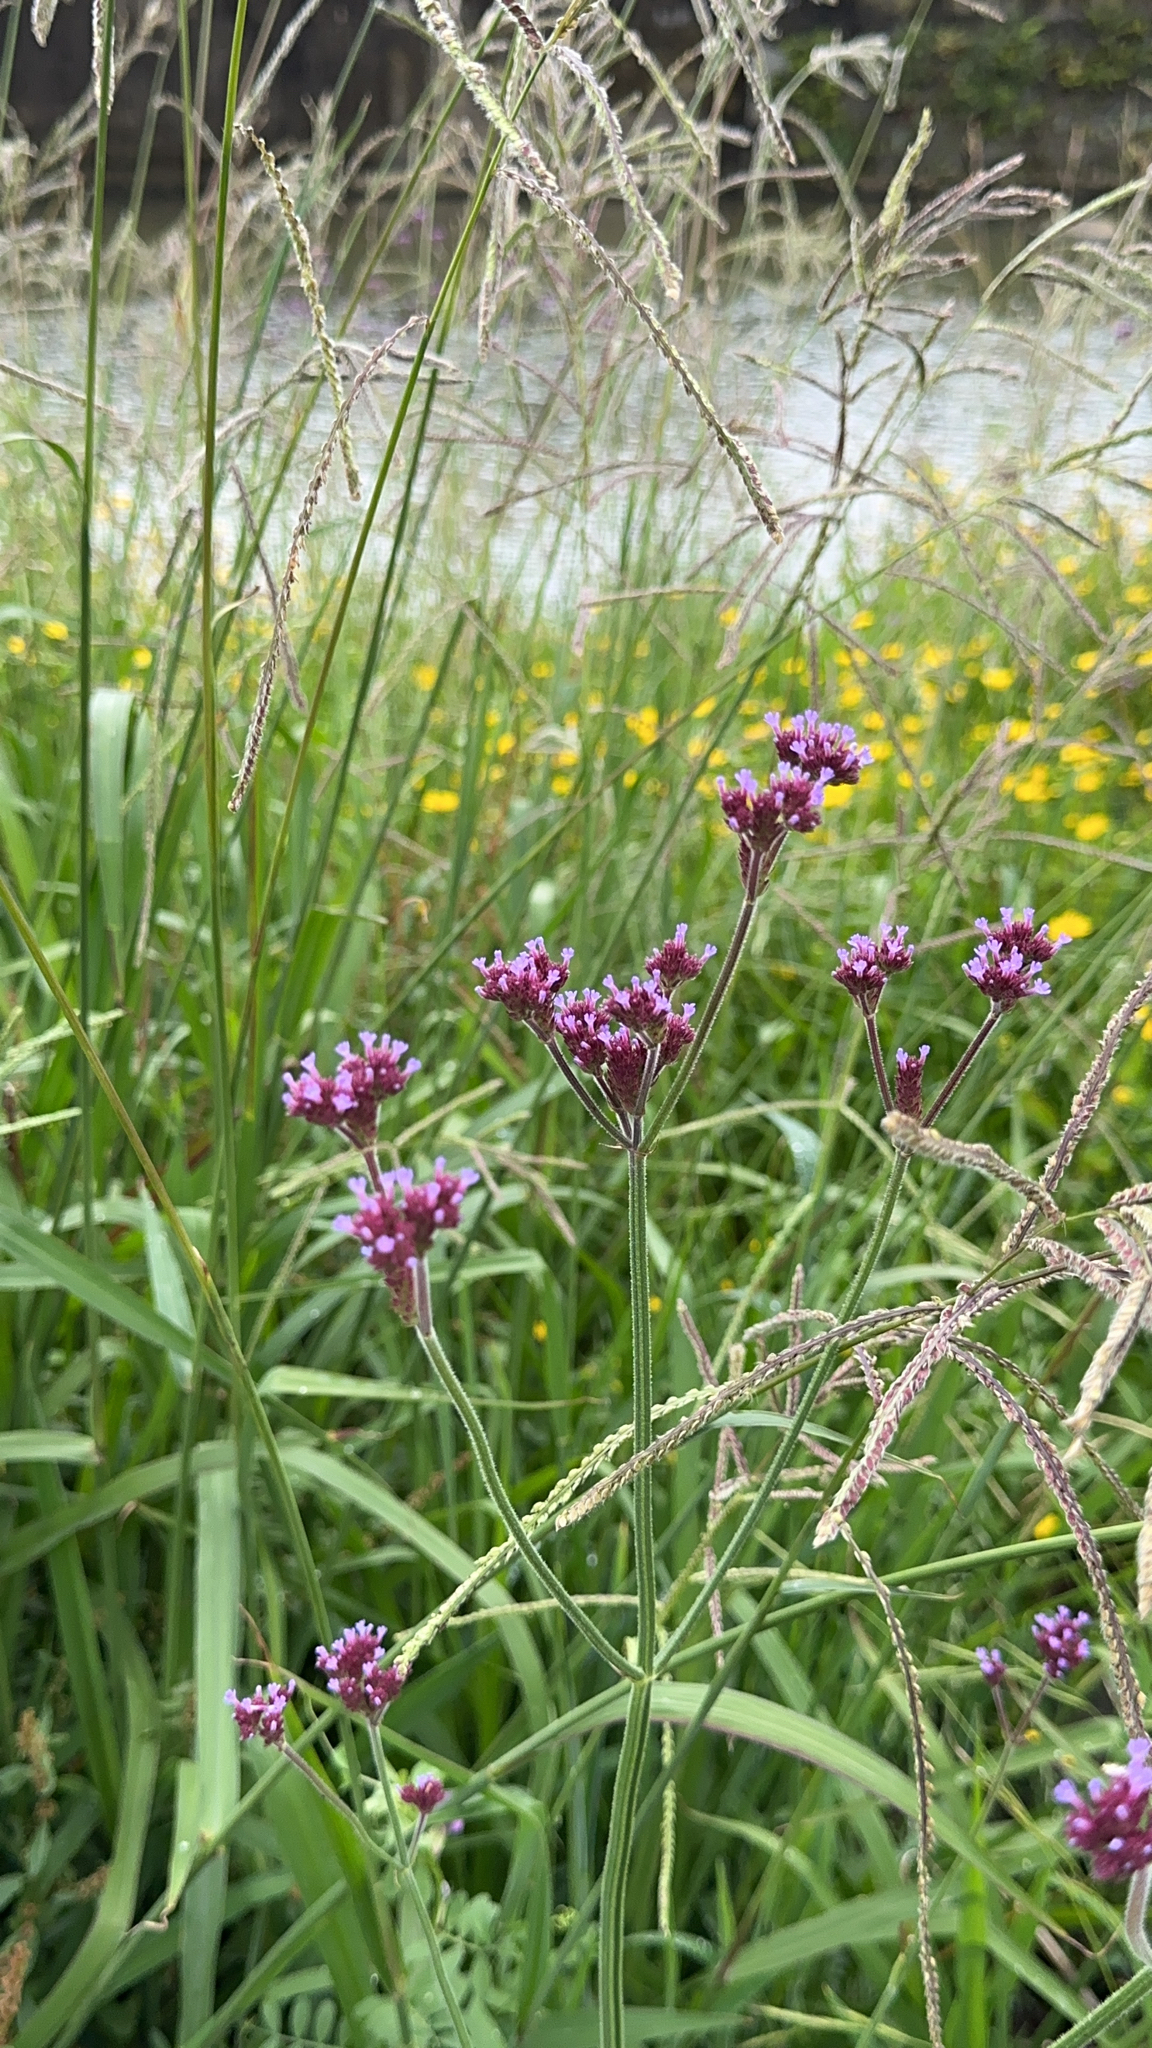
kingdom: Plantae
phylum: Tracheophyta
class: Magnoliopsida
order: Lamiales
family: Verbenaceae
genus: Verbena
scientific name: Verbena bonariensis
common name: Purpletop vervain
